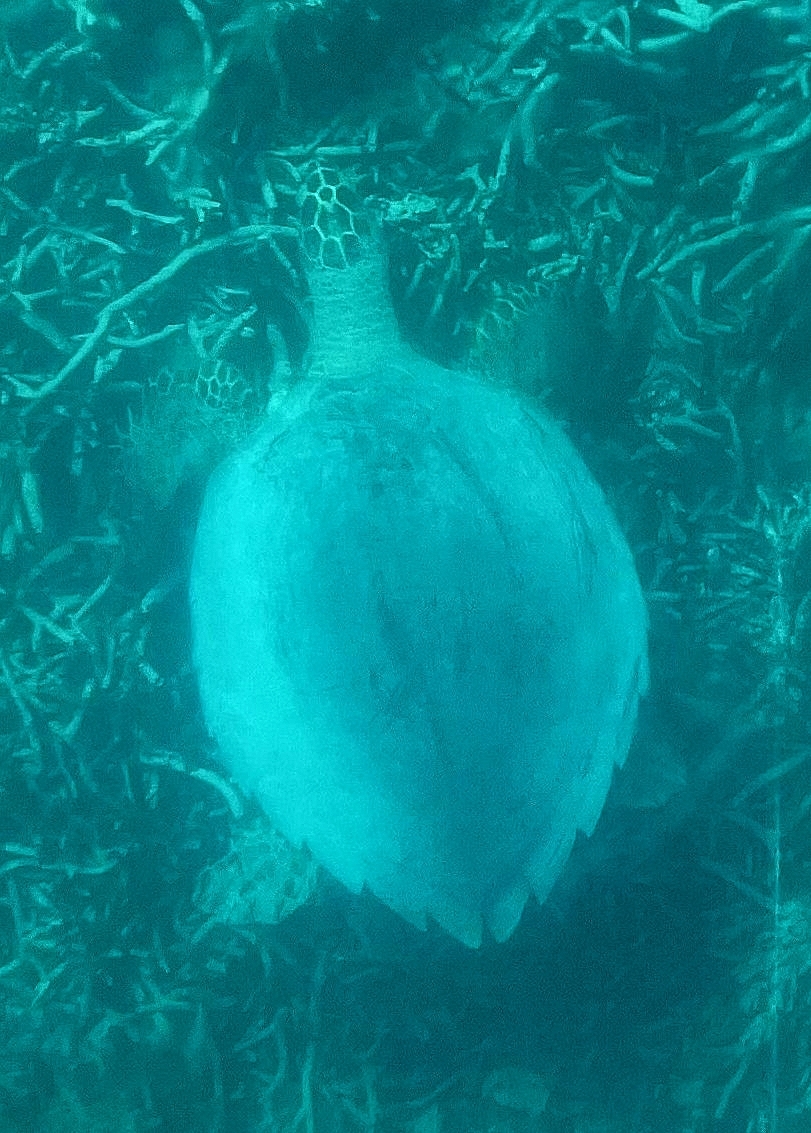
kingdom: Animalia
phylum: Chordata
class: Testudines
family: Cheloniidae
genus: Eretmochelys
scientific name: Eretmochelys imbricata
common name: Hawksbill turtle
